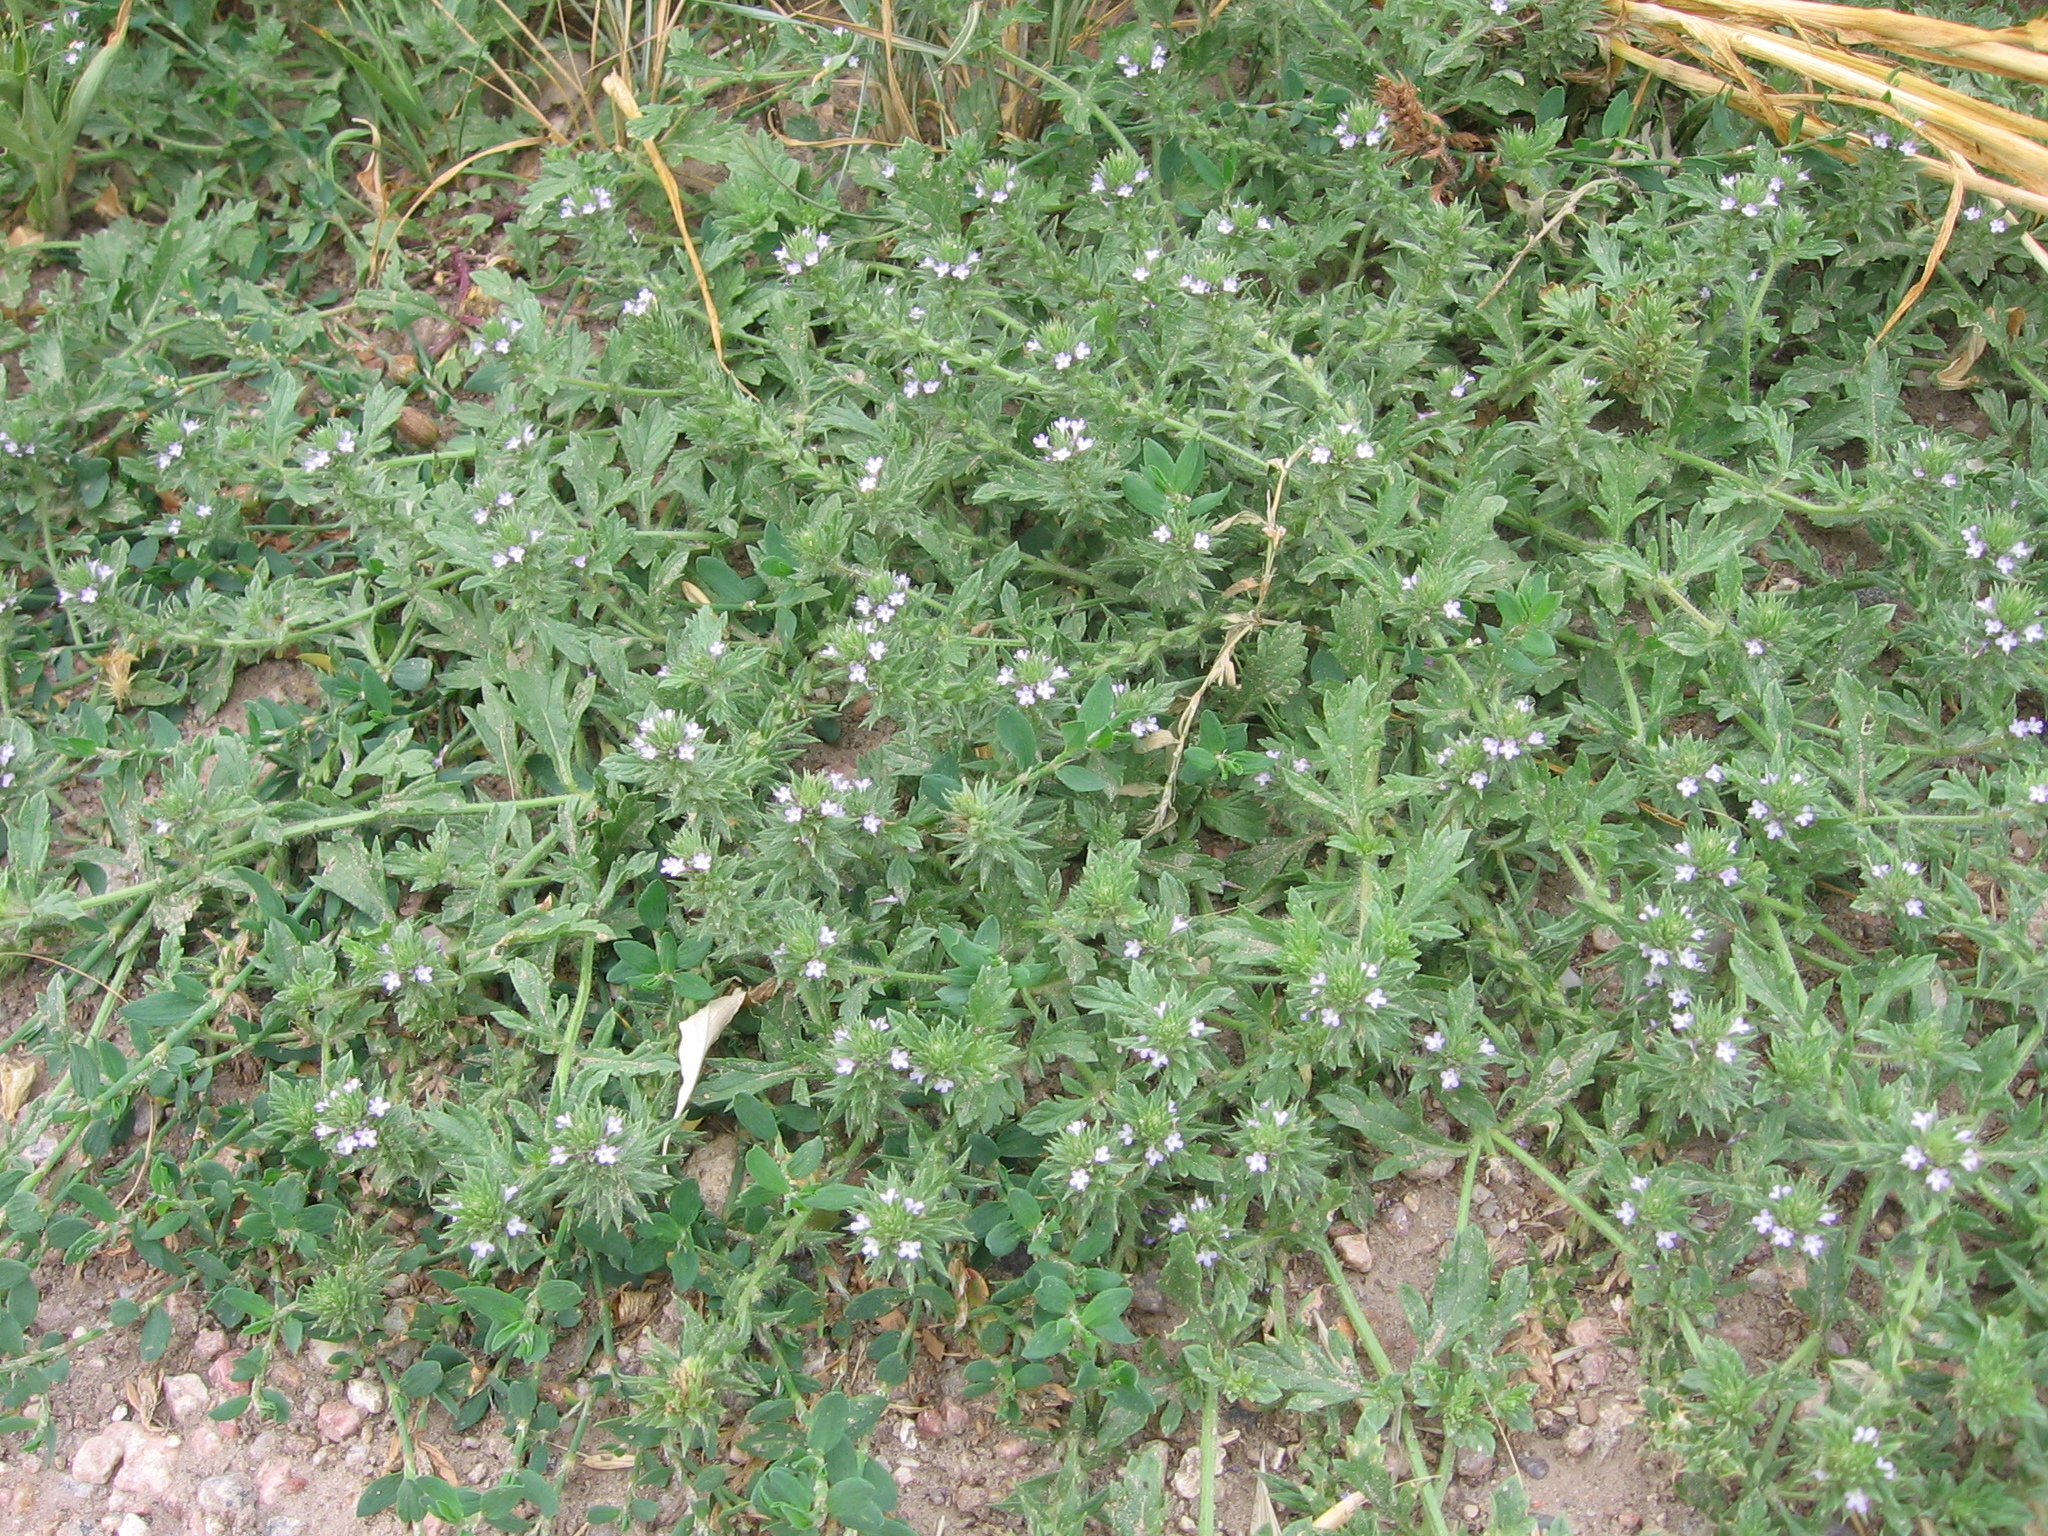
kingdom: Plantae
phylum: Tracheophyta
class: Magnoliopsida
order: Lamiales
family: Verbenaceae
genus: Verbena
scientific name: Verbena bracteata
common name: Bracted vervain
